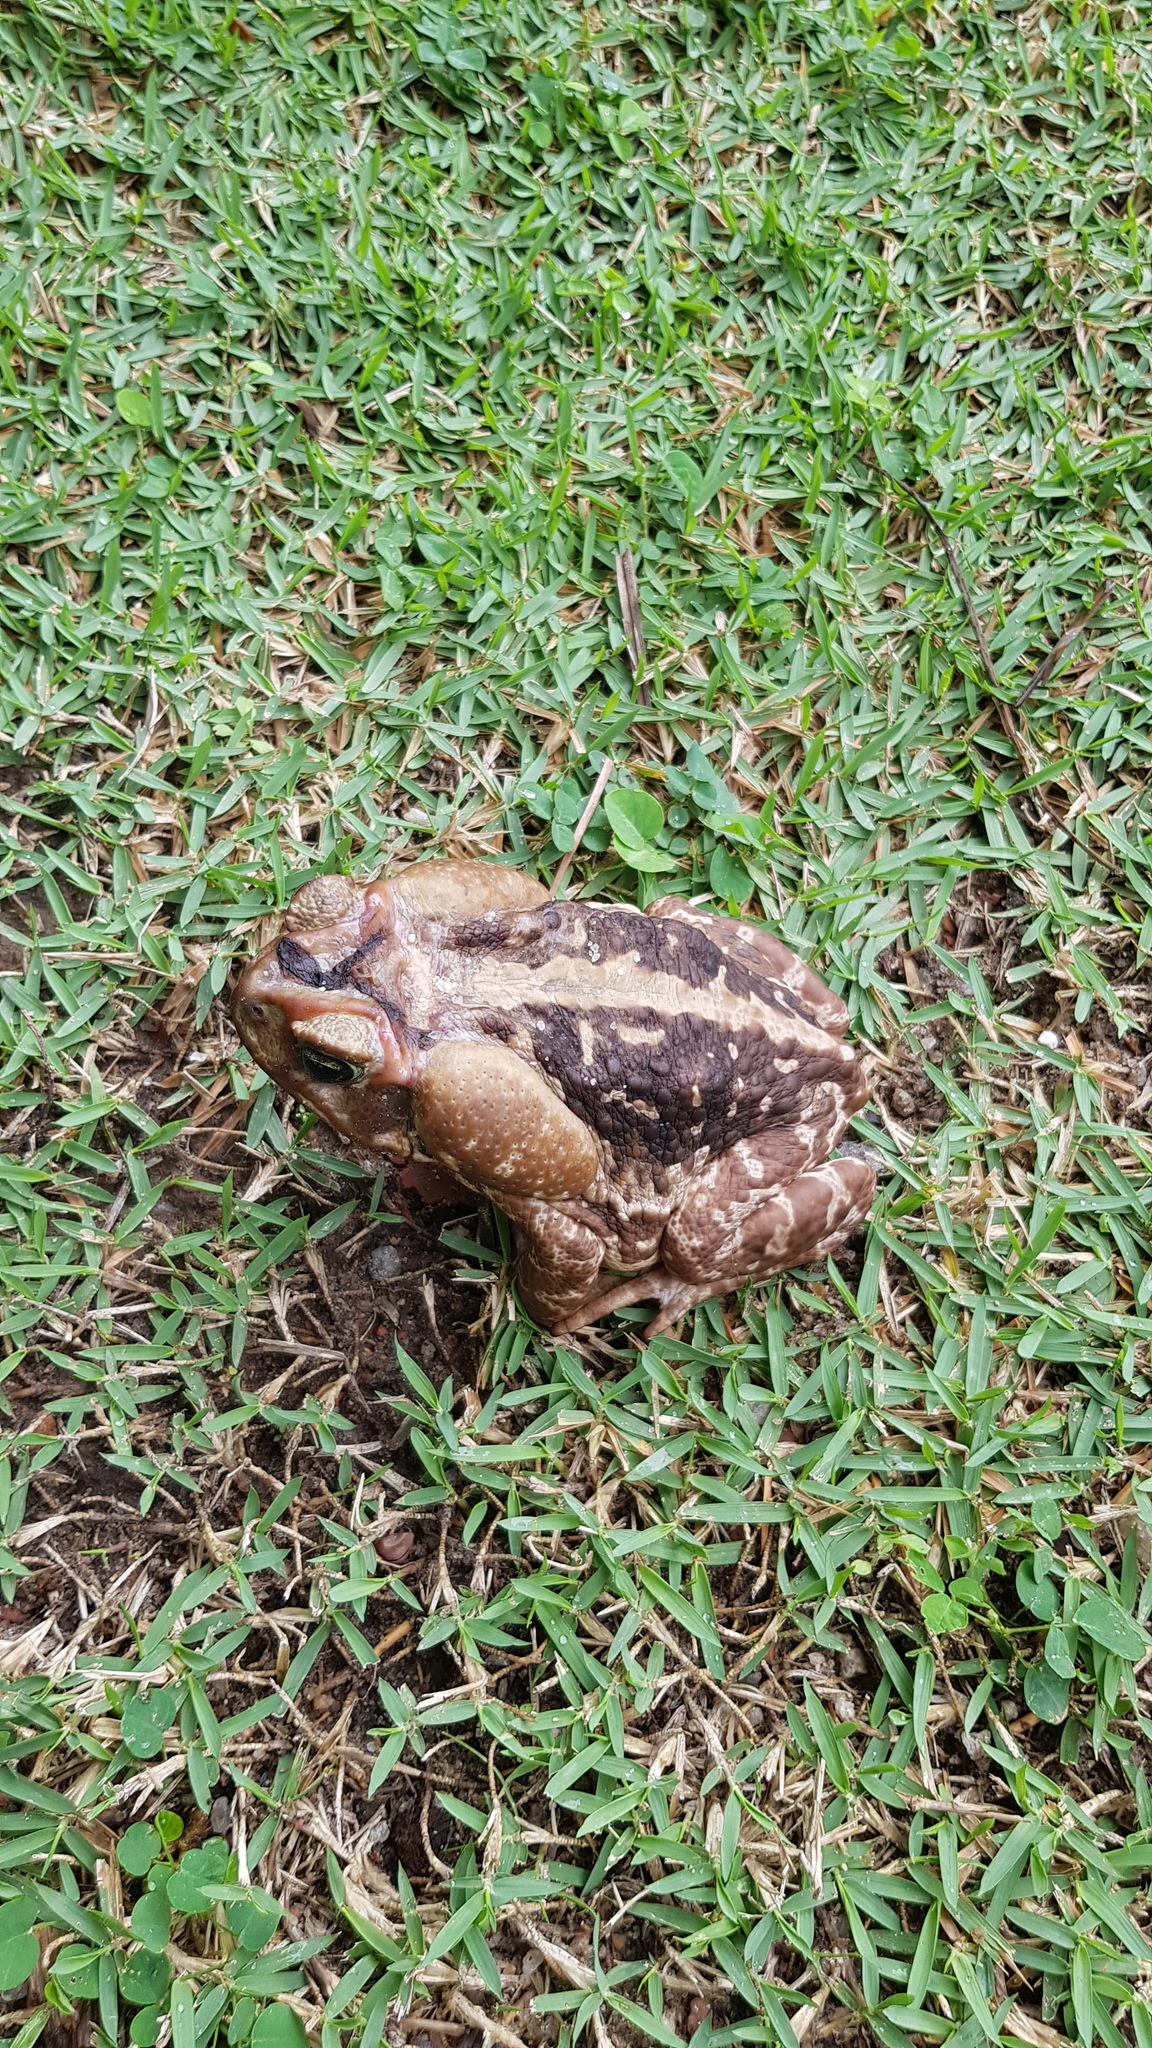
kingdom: Animalia
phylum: Chordata
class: Amphibia
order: Anura
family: Bufonidae
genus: Rhinella
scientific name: Rhinella icterica
